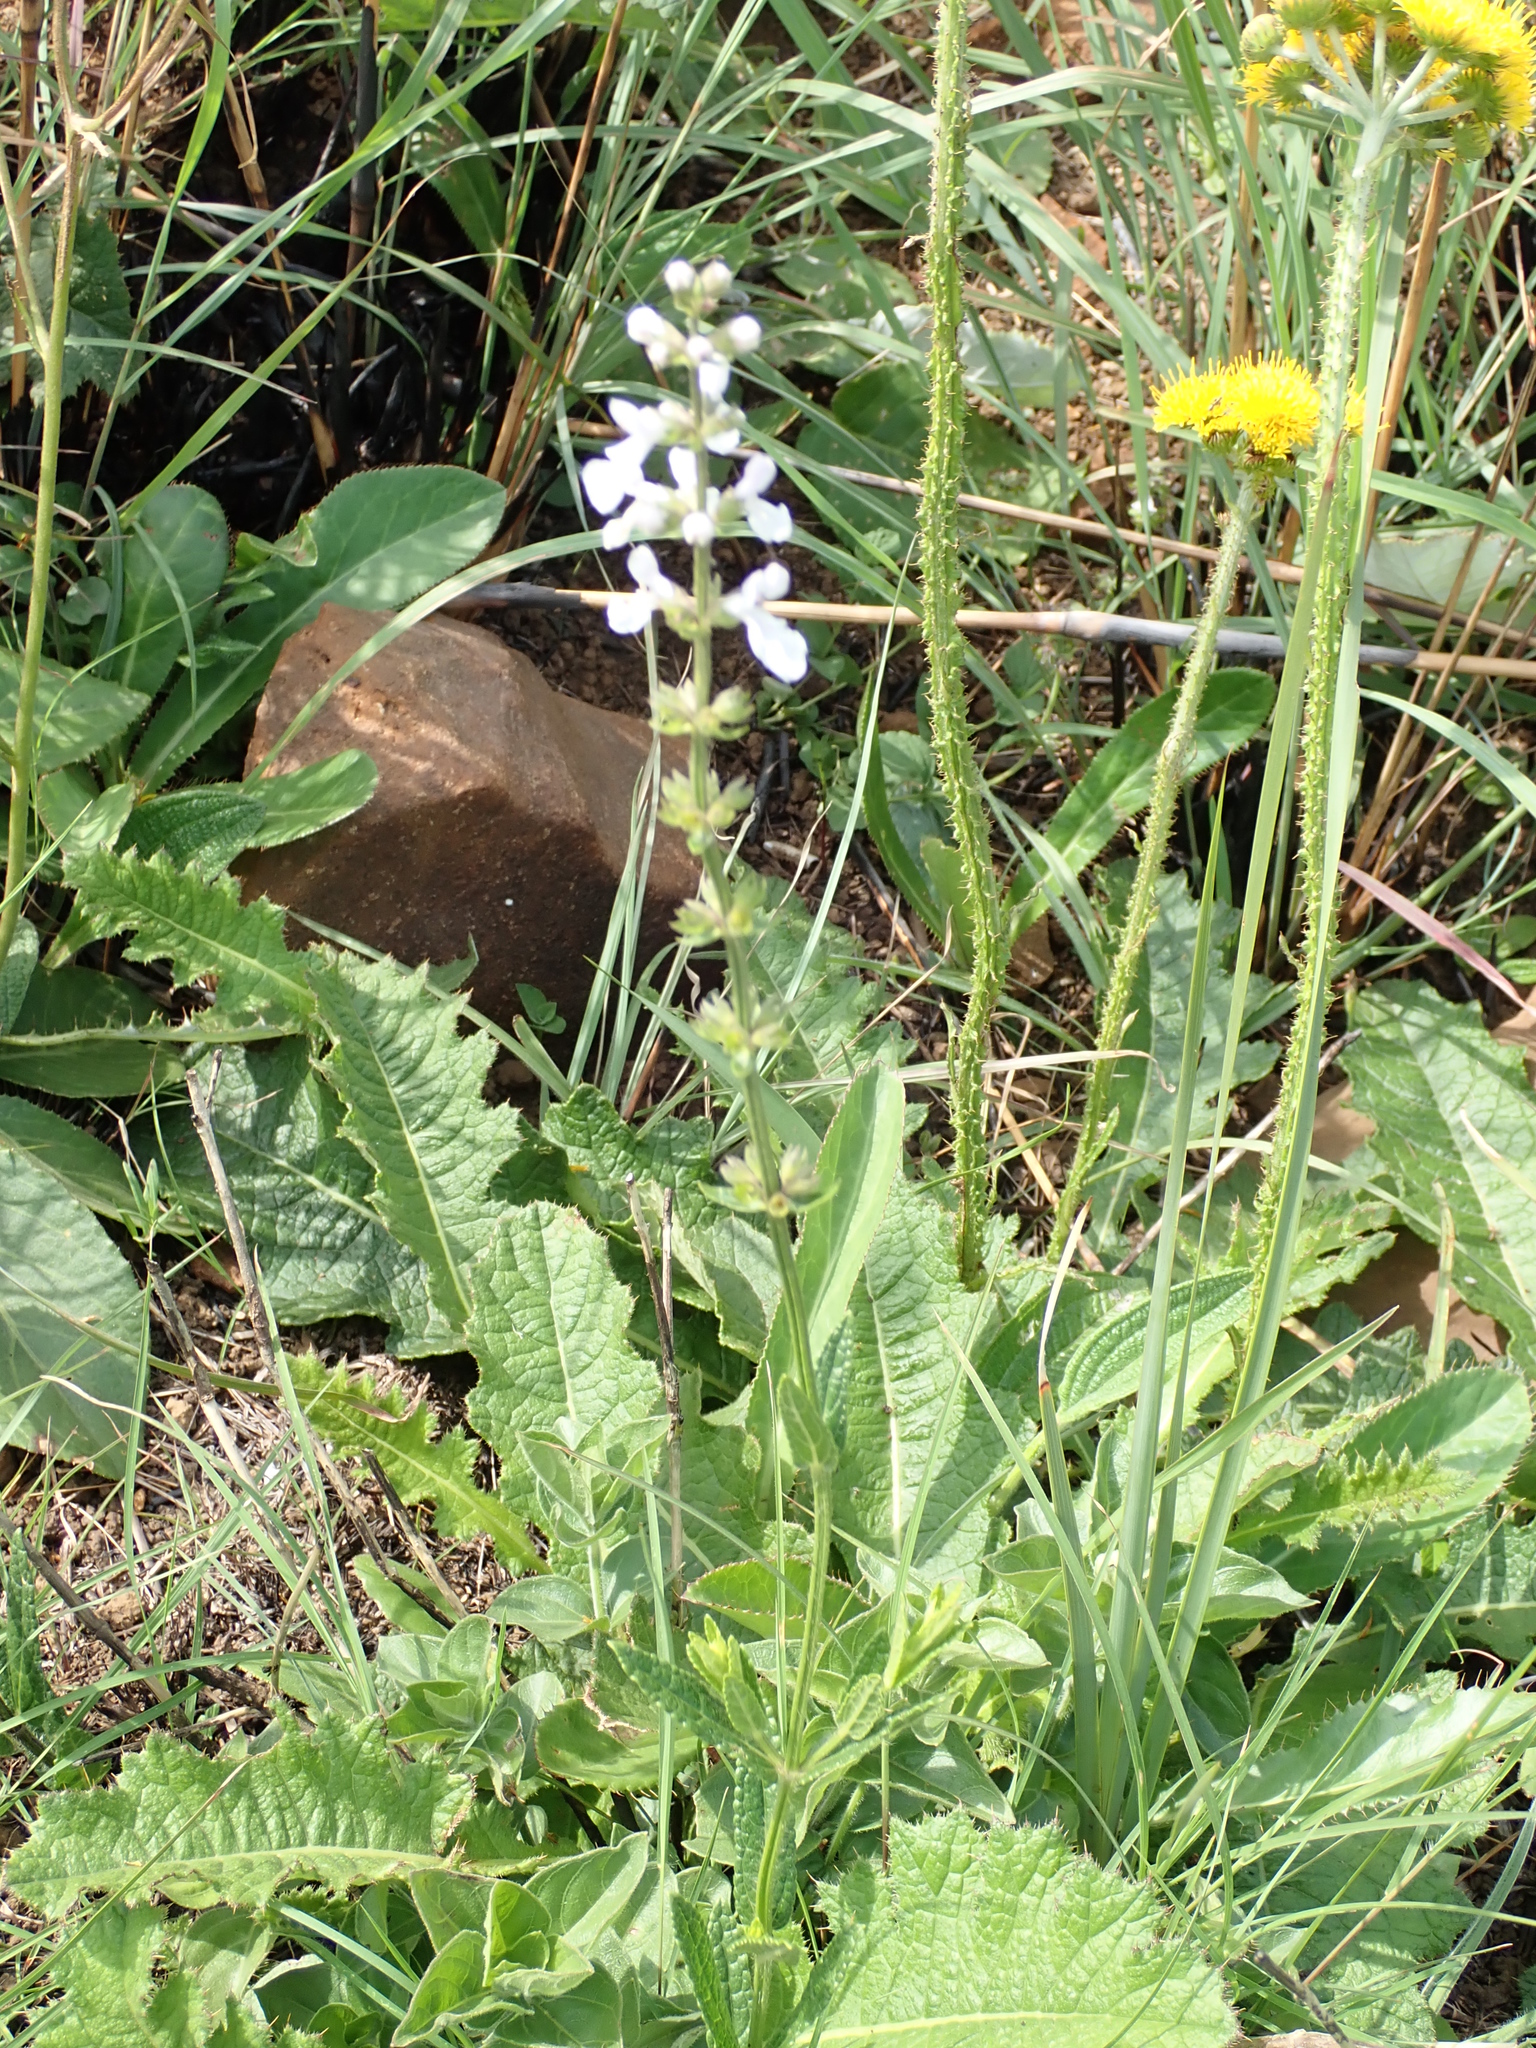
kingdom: Plantae
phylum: Tracheophyta
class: Magnoliopsida
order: Lamiales
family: Lamiaceae
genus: Stachys
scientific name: Stachys nigricans
